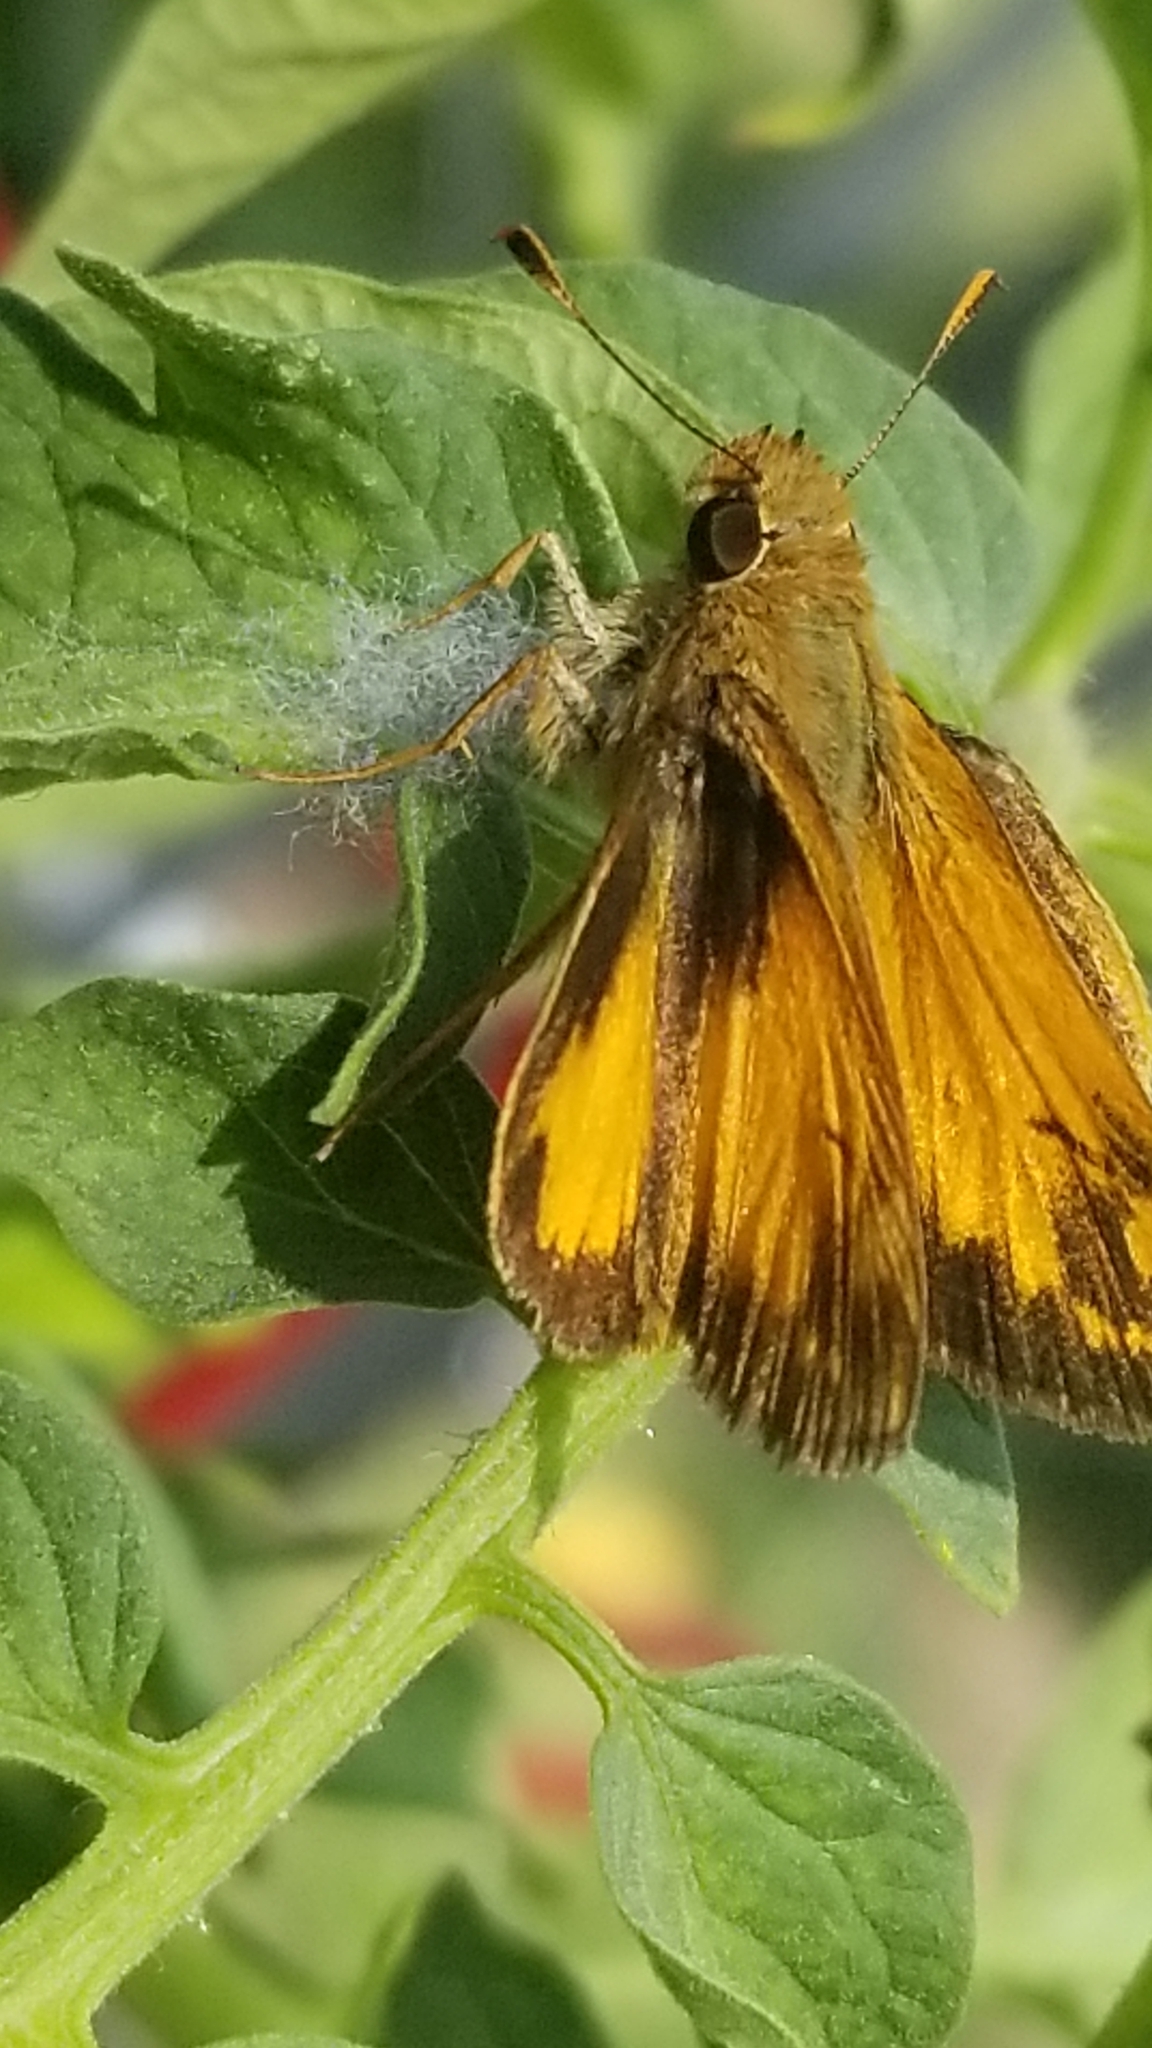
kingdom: Animalia
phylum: Arthropoda
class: Insecta
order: Lepidoptera
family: Hesperiidae
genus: Lon
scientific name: Lon zabulon
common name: Zabulon skipper
